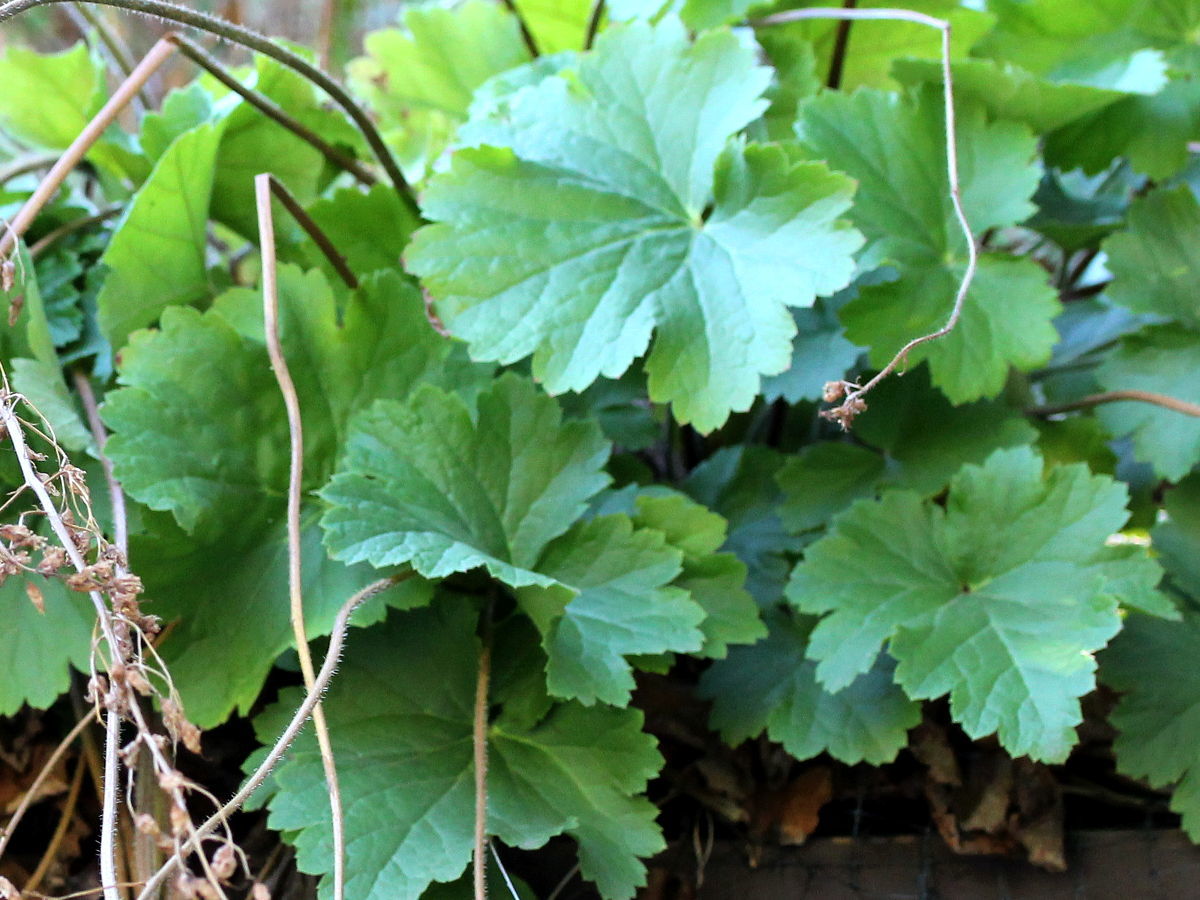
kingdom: Plantae
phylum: Tracheophyta
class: Magnoliopsida
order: Saxifragales
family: Saxifragaceae
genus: Heuchera
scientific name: Heuchera richardsonii
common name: Richardson's alumroot
